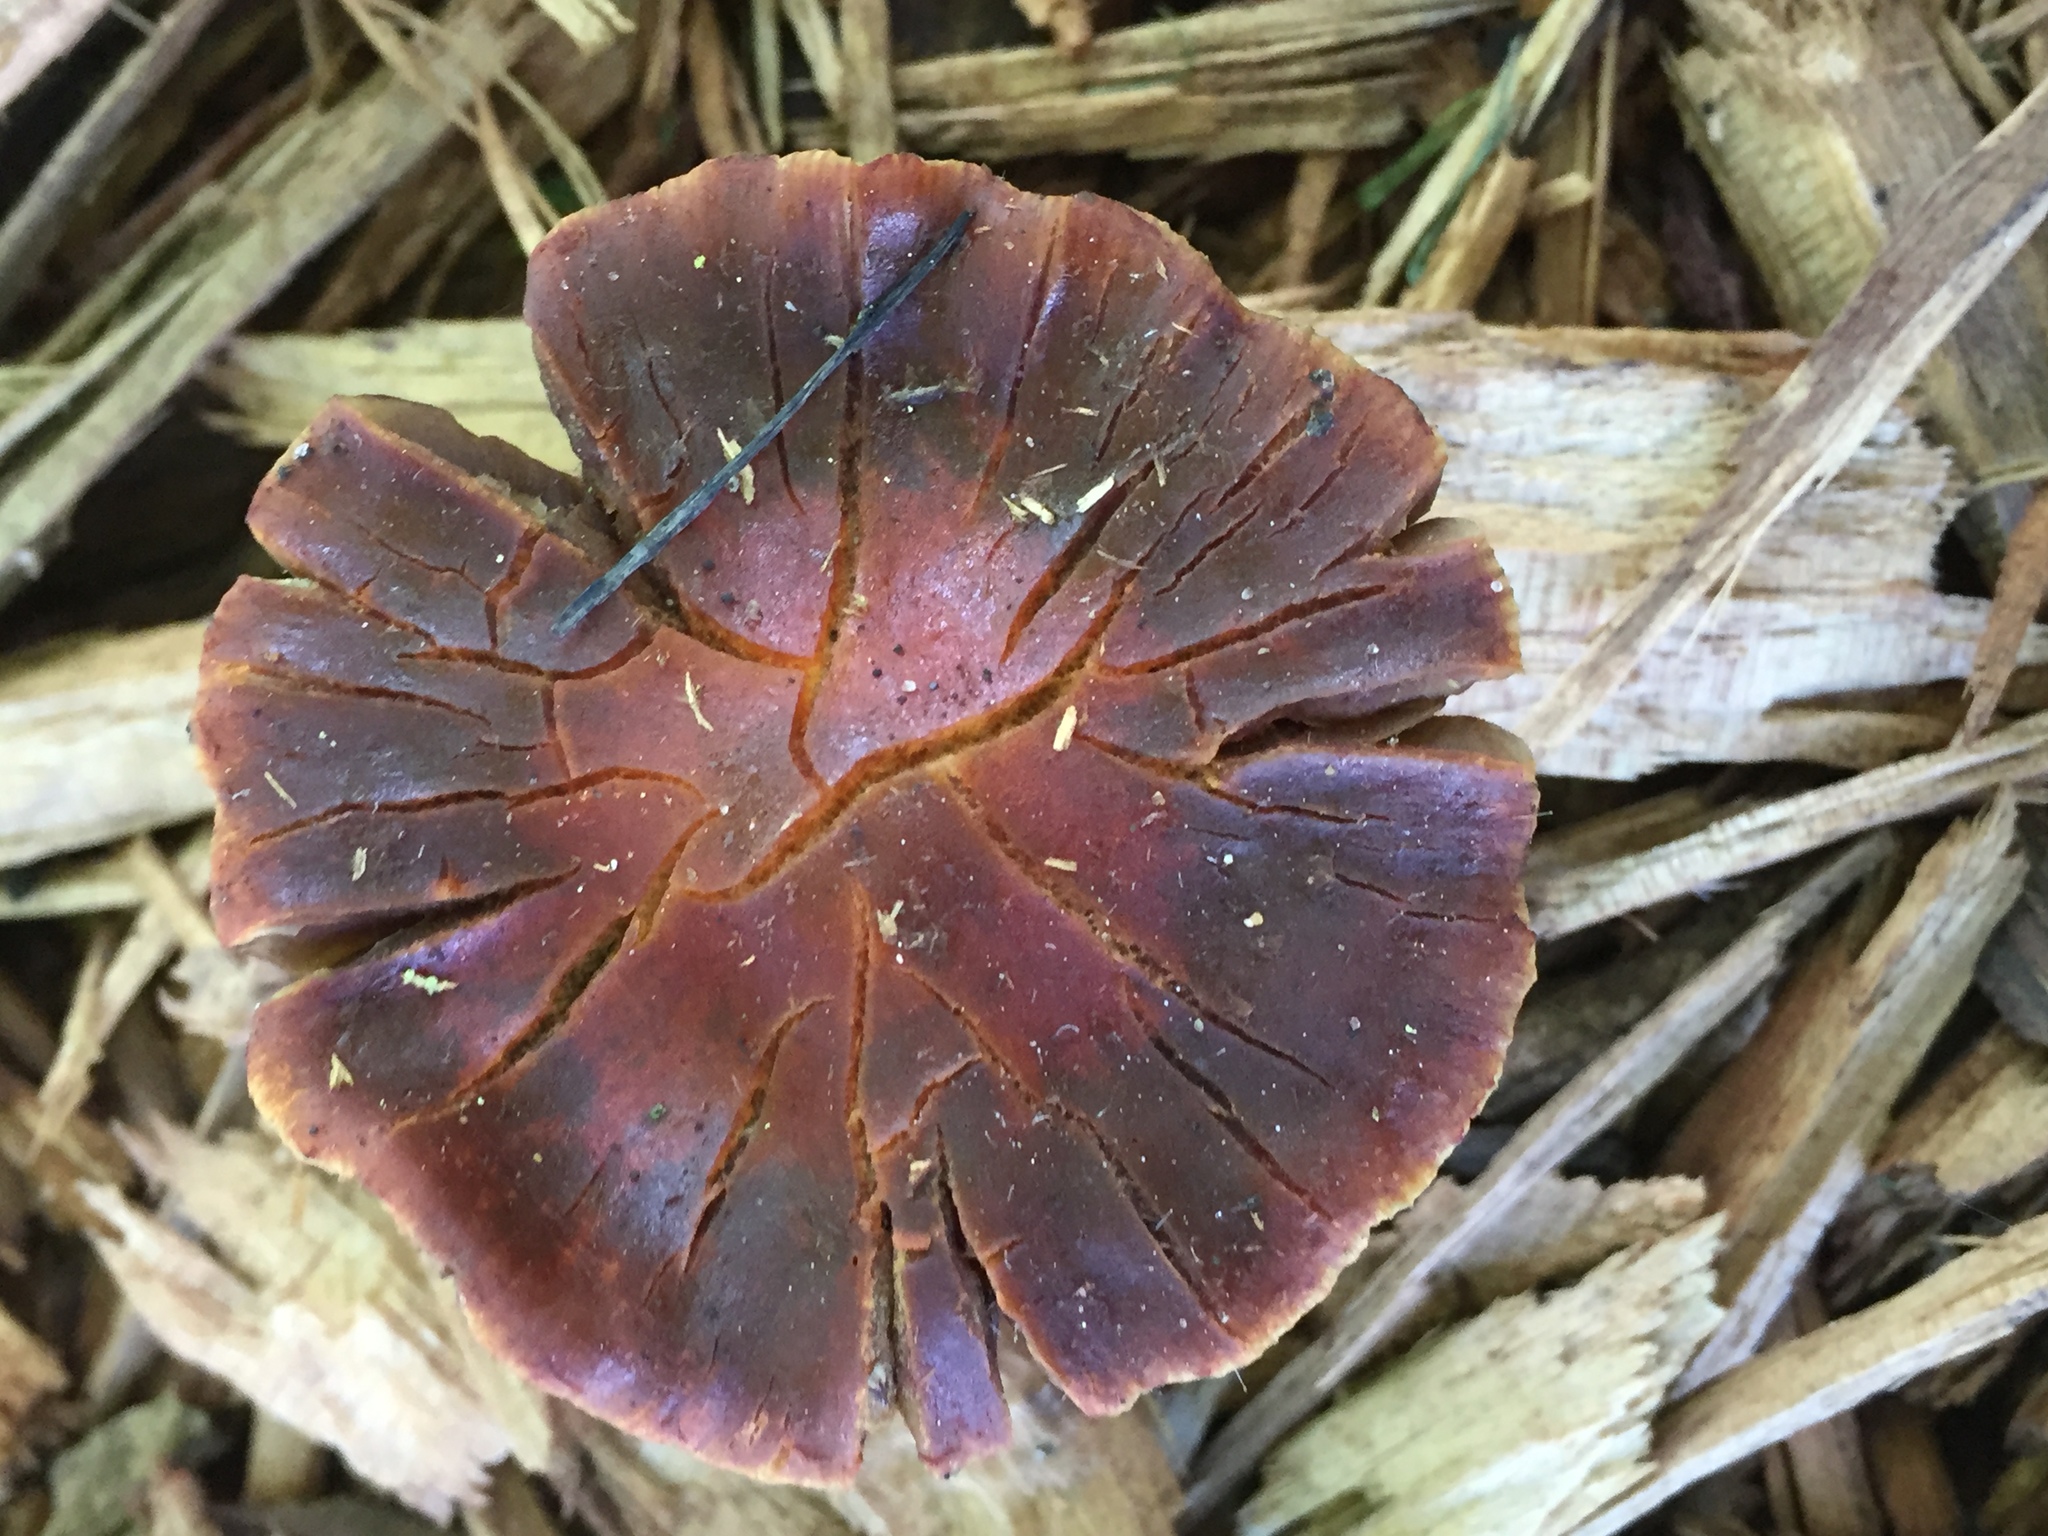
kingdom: Fungi
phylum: Basidiomycota
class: Agaricomycetes
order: Agaricales
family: Strophariaceae
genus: Leratiomyces
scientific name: Leratiomyces ceres
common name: Redlead roundhead
